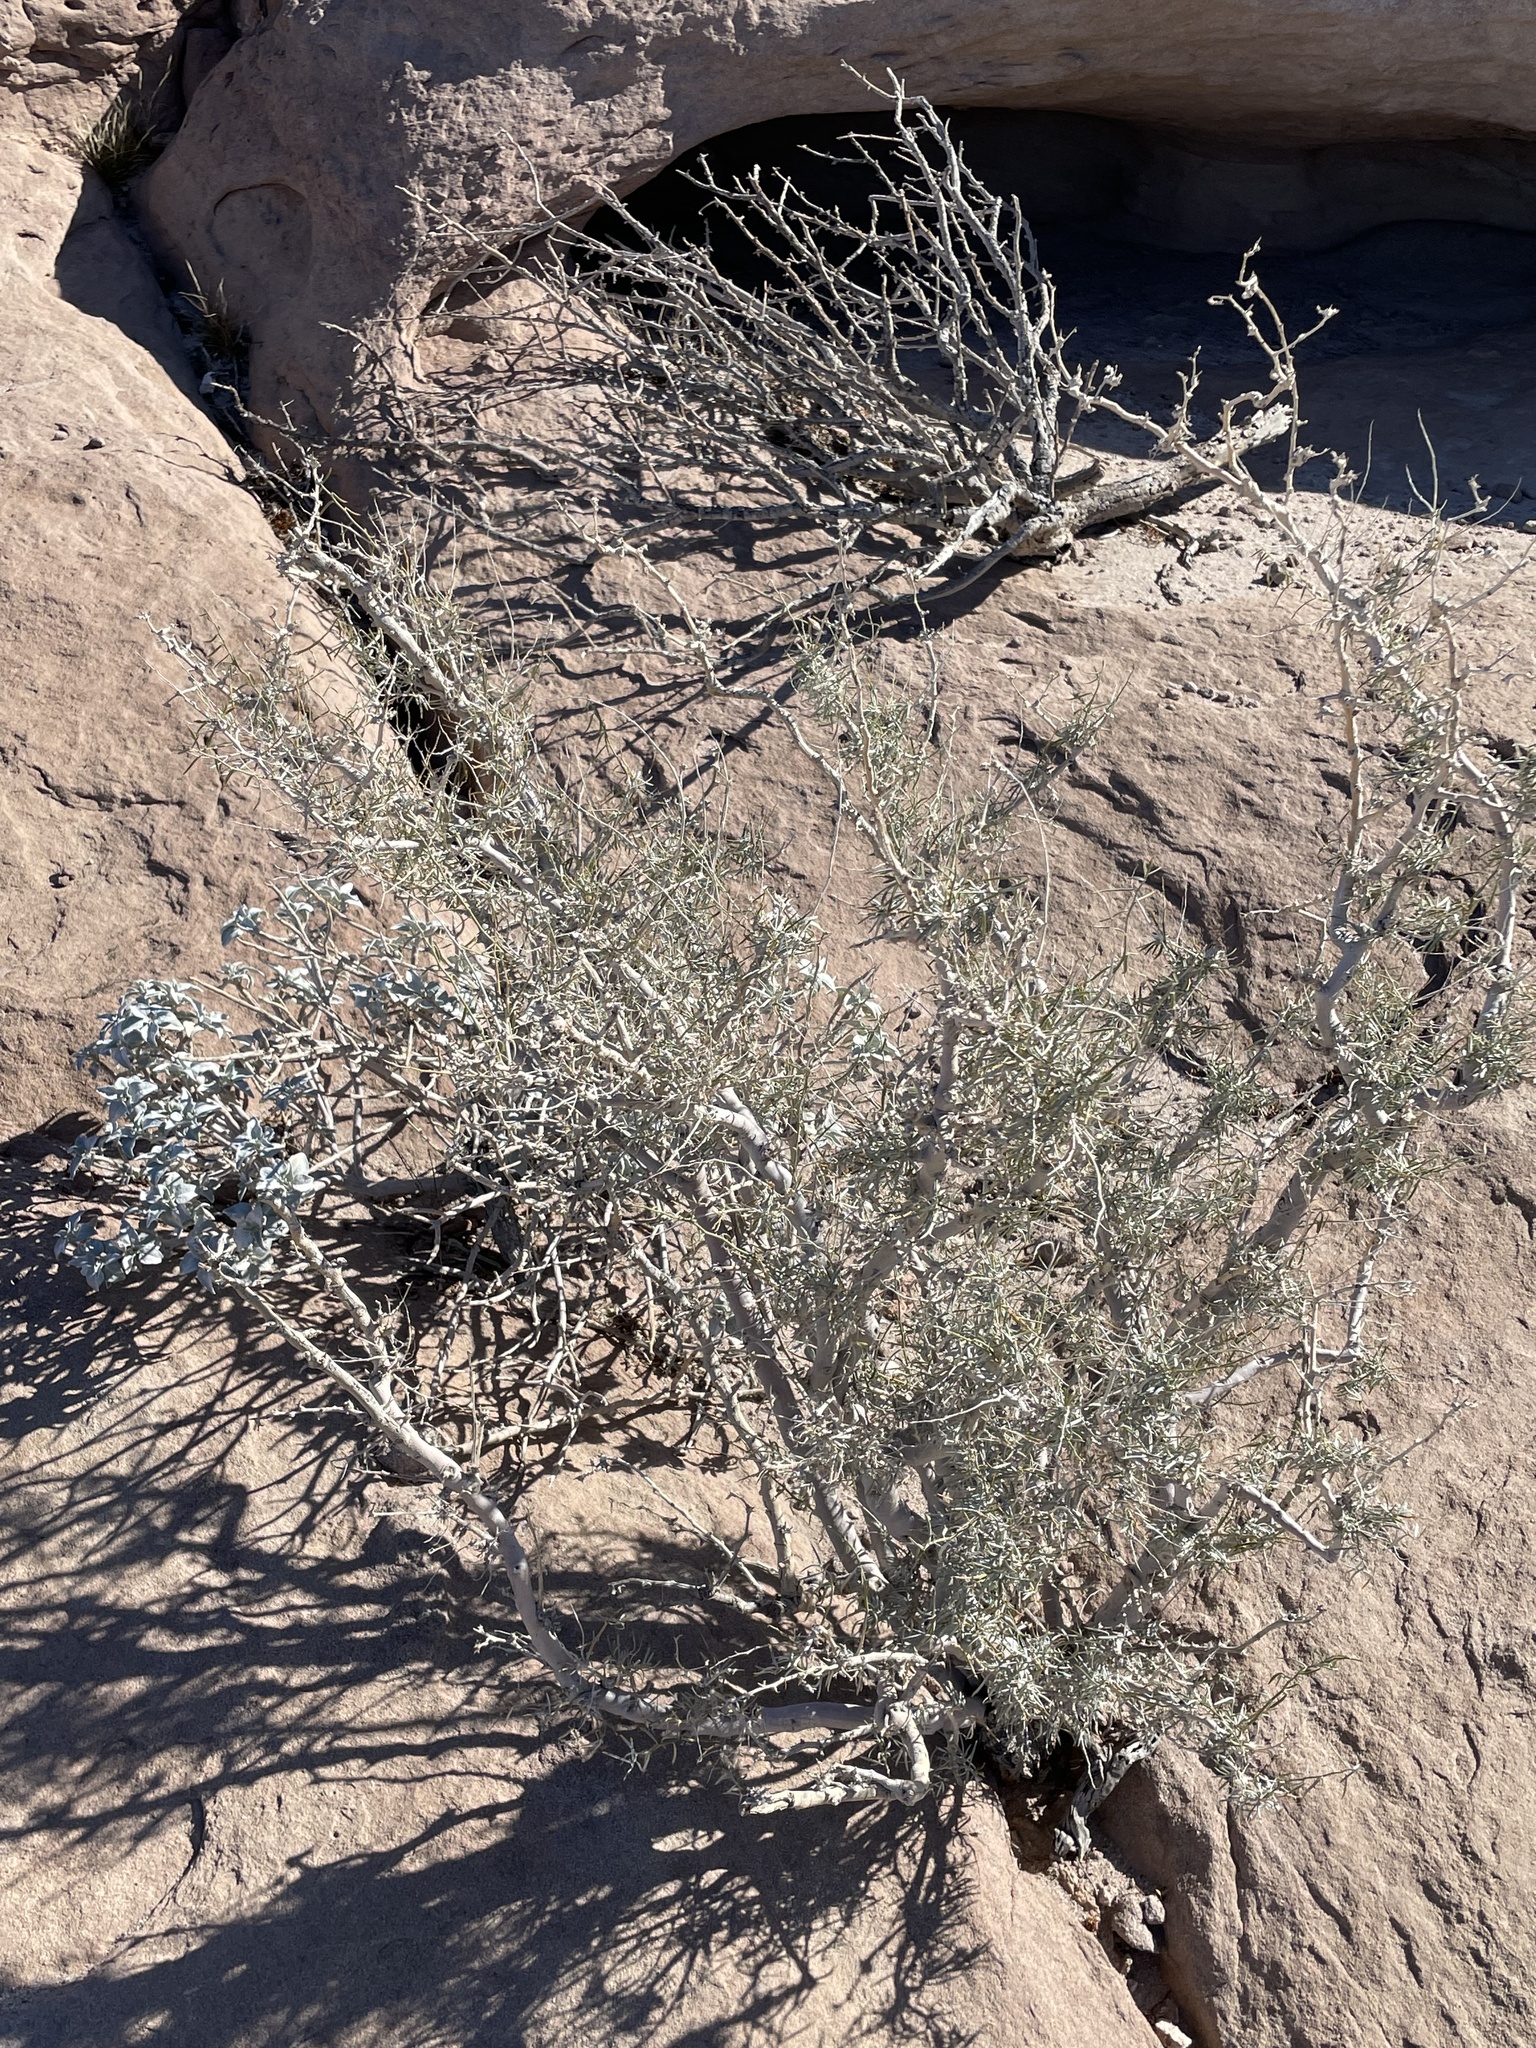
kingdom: Plantae
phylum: Tracheophyta
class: Magnoliopsida
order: Fabales
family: Fabaceae
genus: Psorothamnus
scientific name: Psorothamnus schottii
